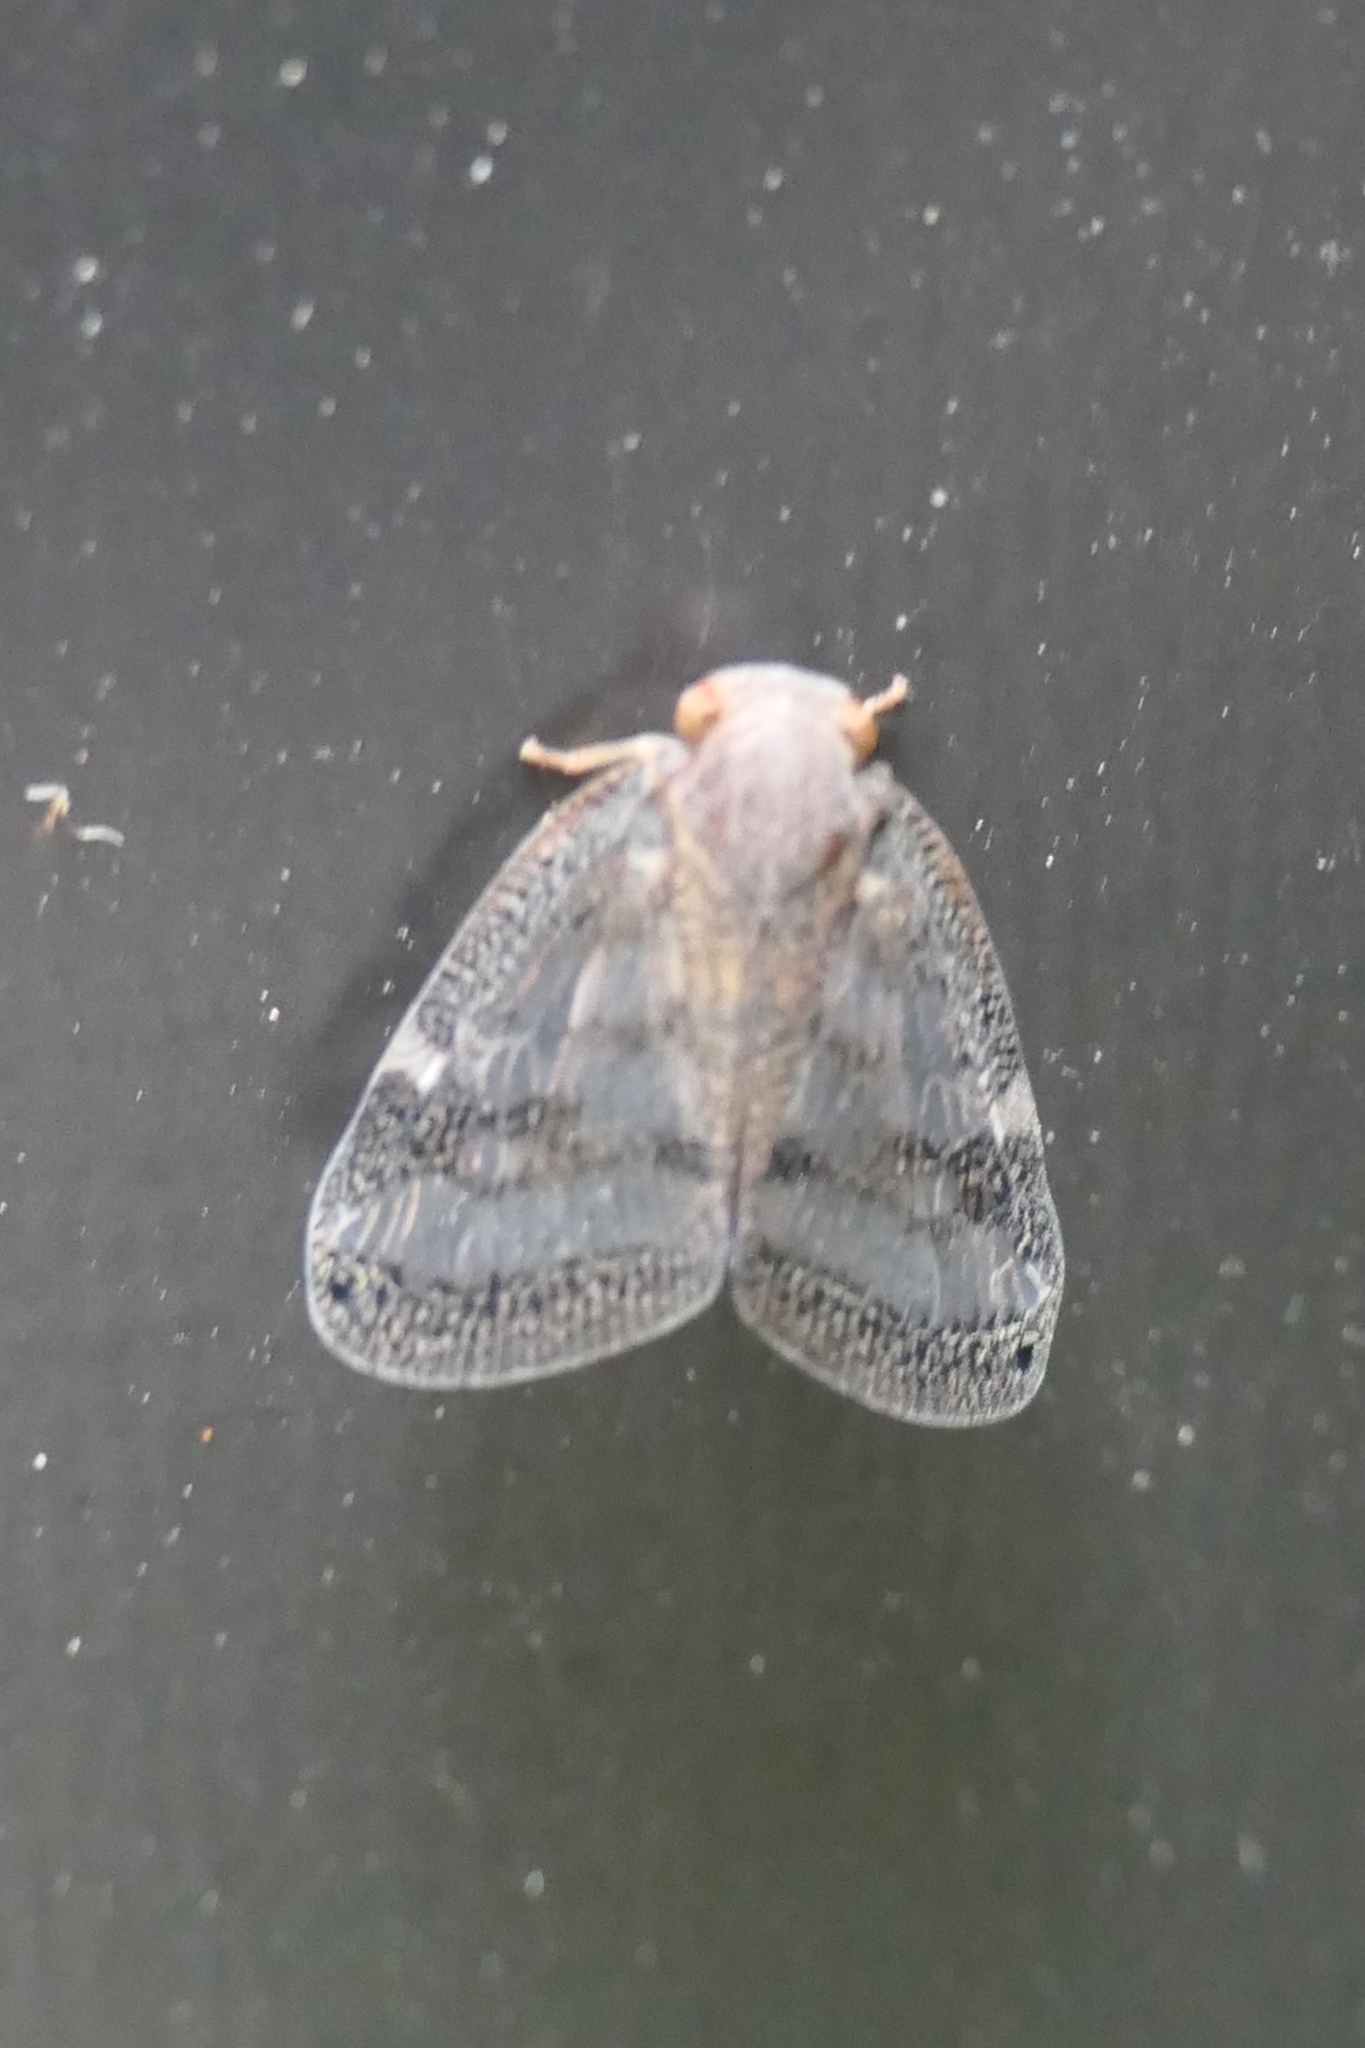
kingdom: Animalia
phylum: Arthropoda
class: Insecta
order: Hemiptera
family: Ricaniidae
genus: Scolypopa
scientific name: Scolypopa australis
